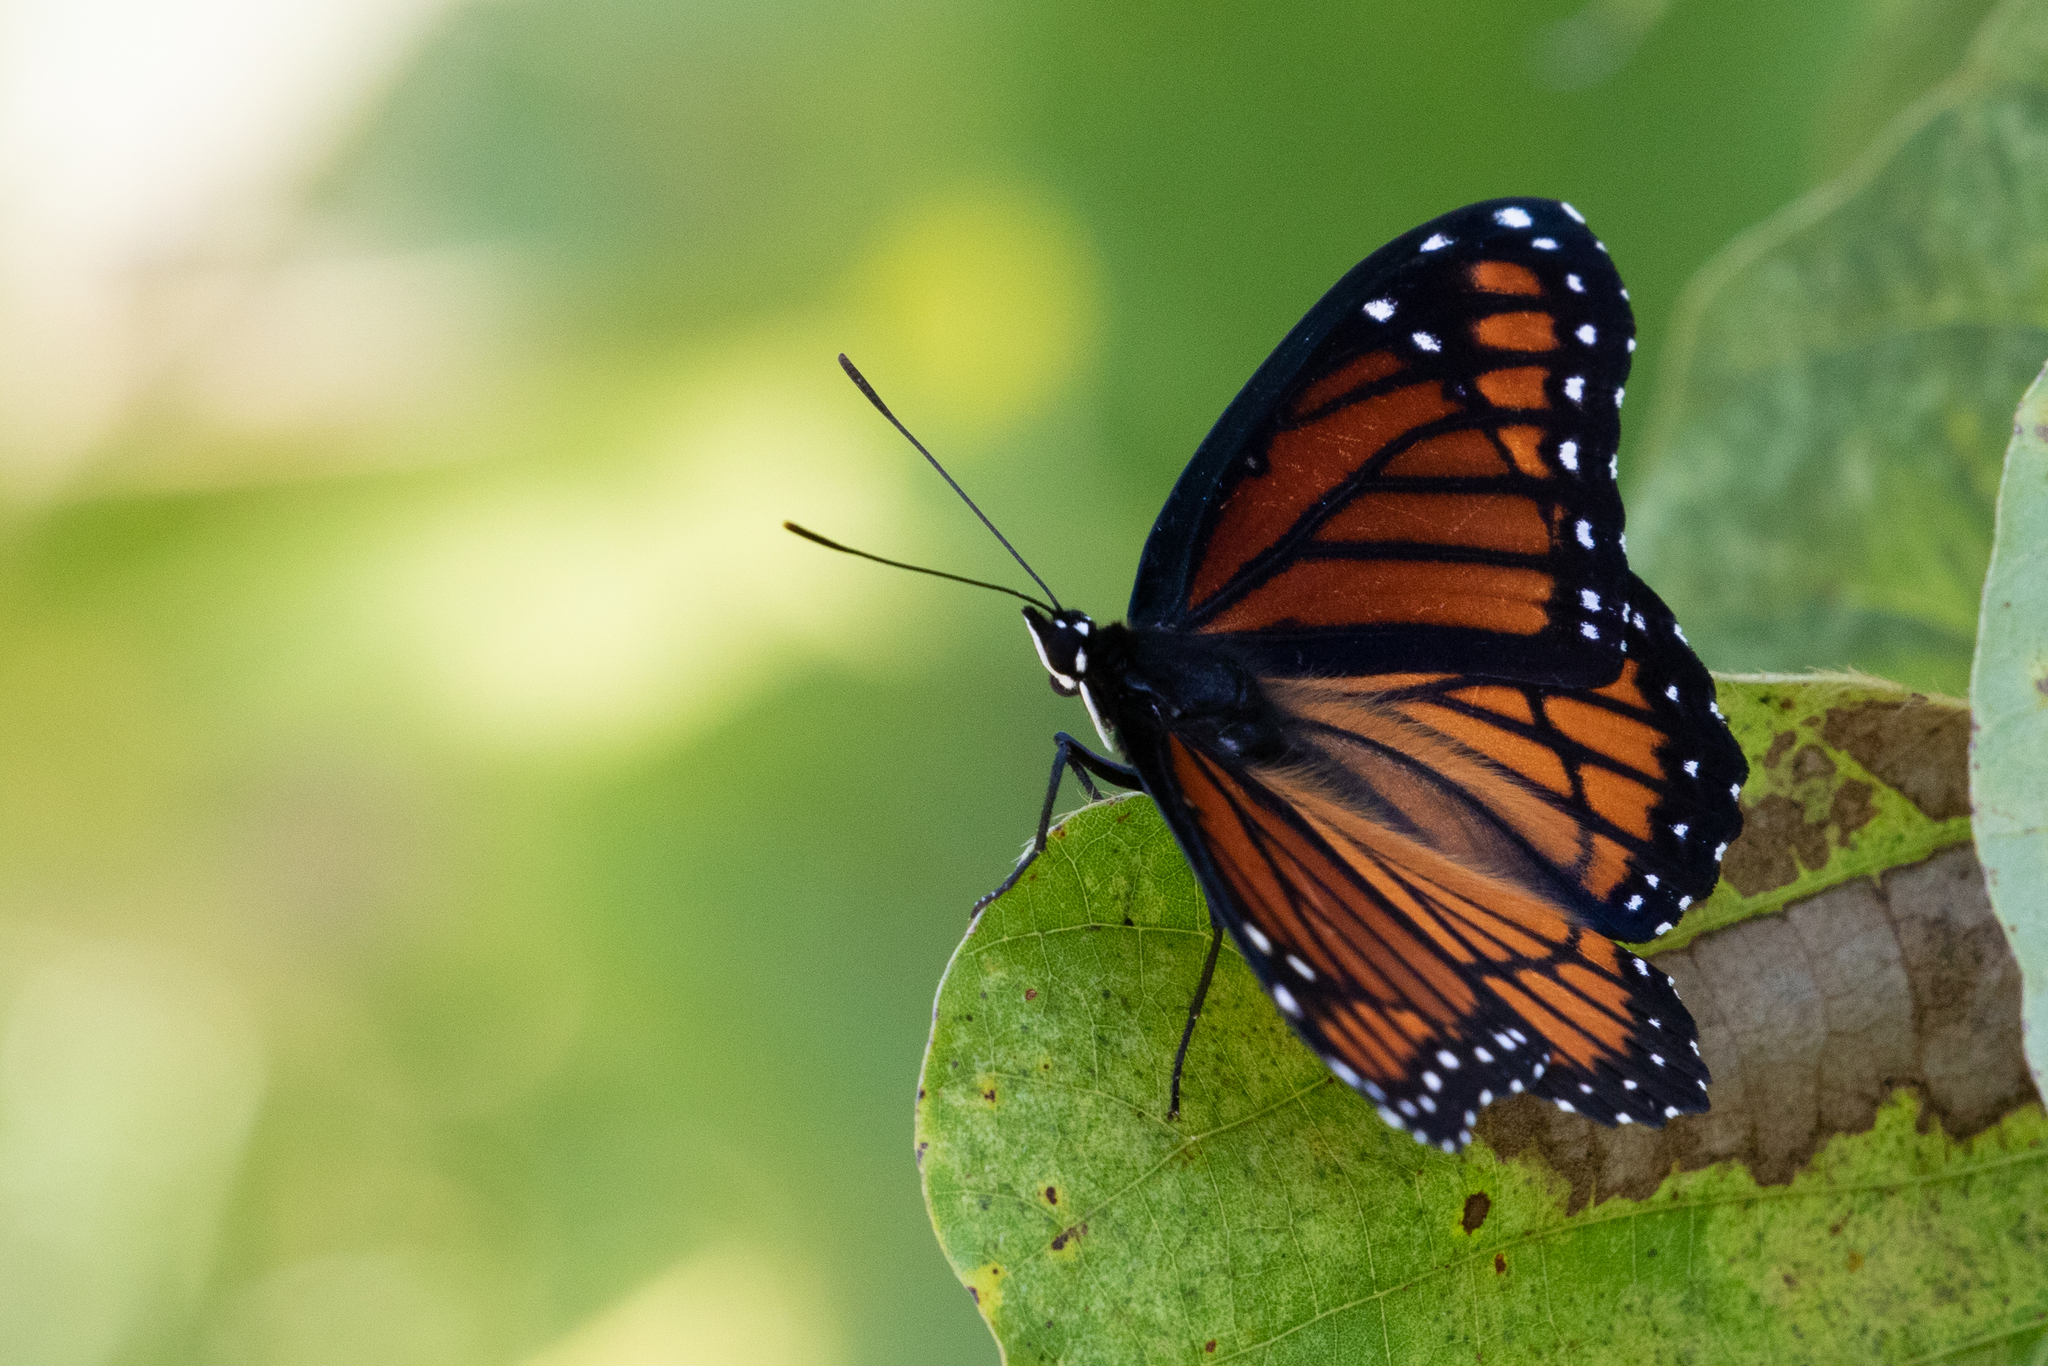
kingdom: Animalia
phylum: Arthropoda
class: Insecta
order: Lepidoptera
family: Nymphalidae
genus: Limenitis
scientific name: Limenitis archippus
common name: Viceroy
